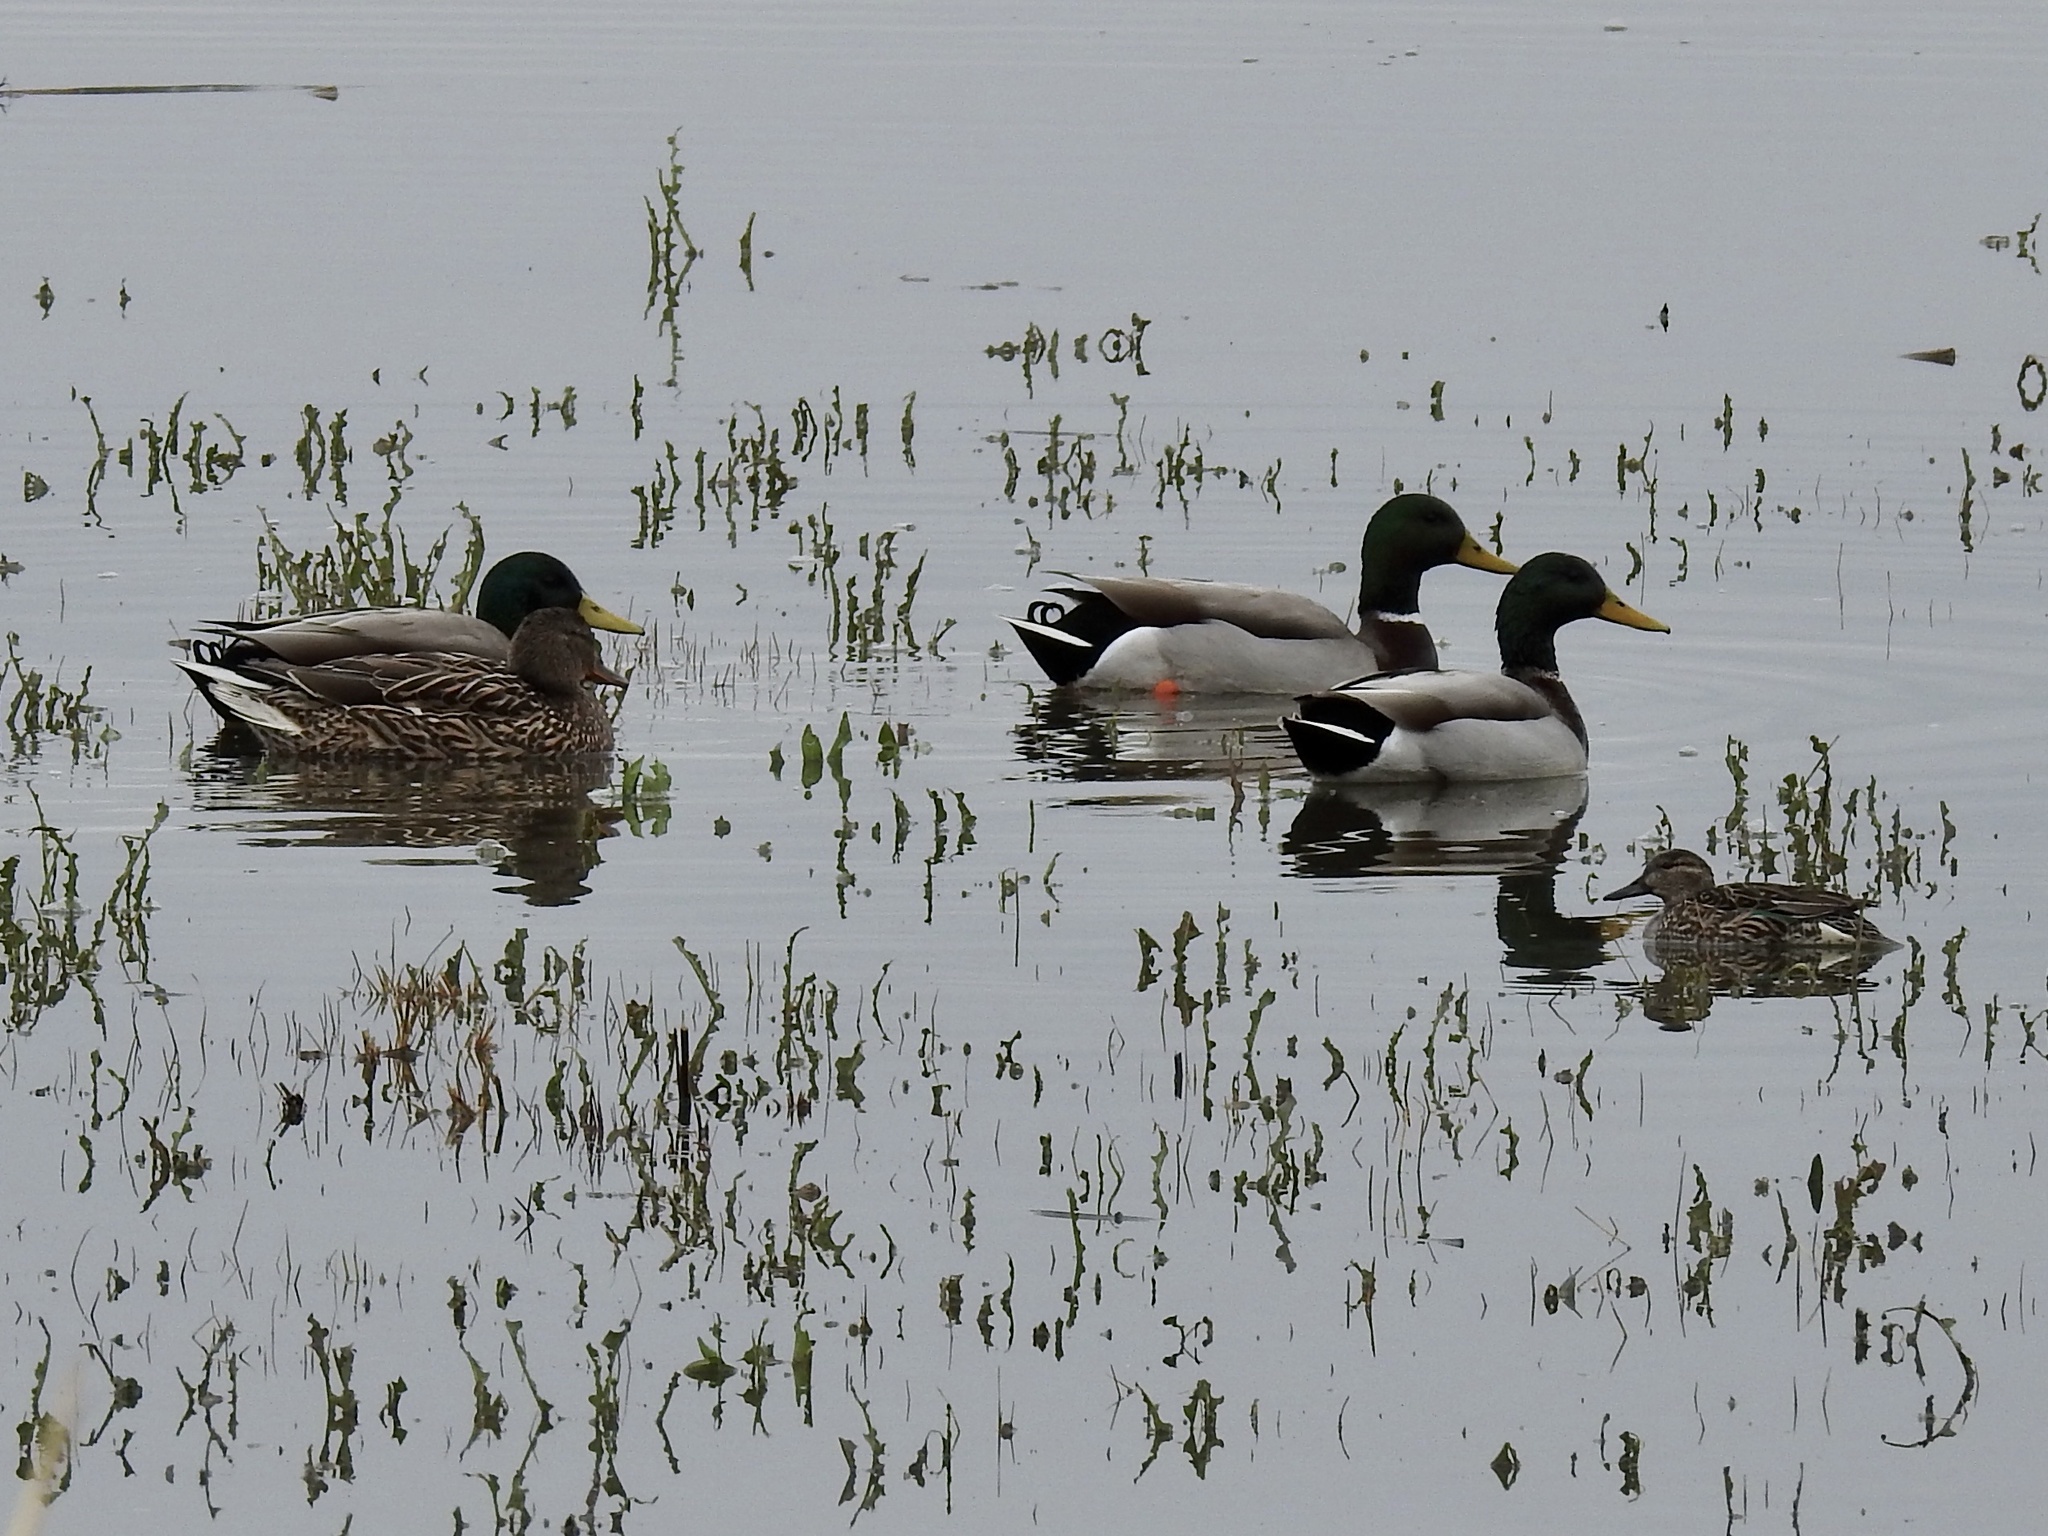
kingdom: Animalia
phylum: Chordata
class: Aves
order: Anseriformes
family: Anatidae
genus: Anas
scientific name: Anas platyrhynchos
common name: Mallard
